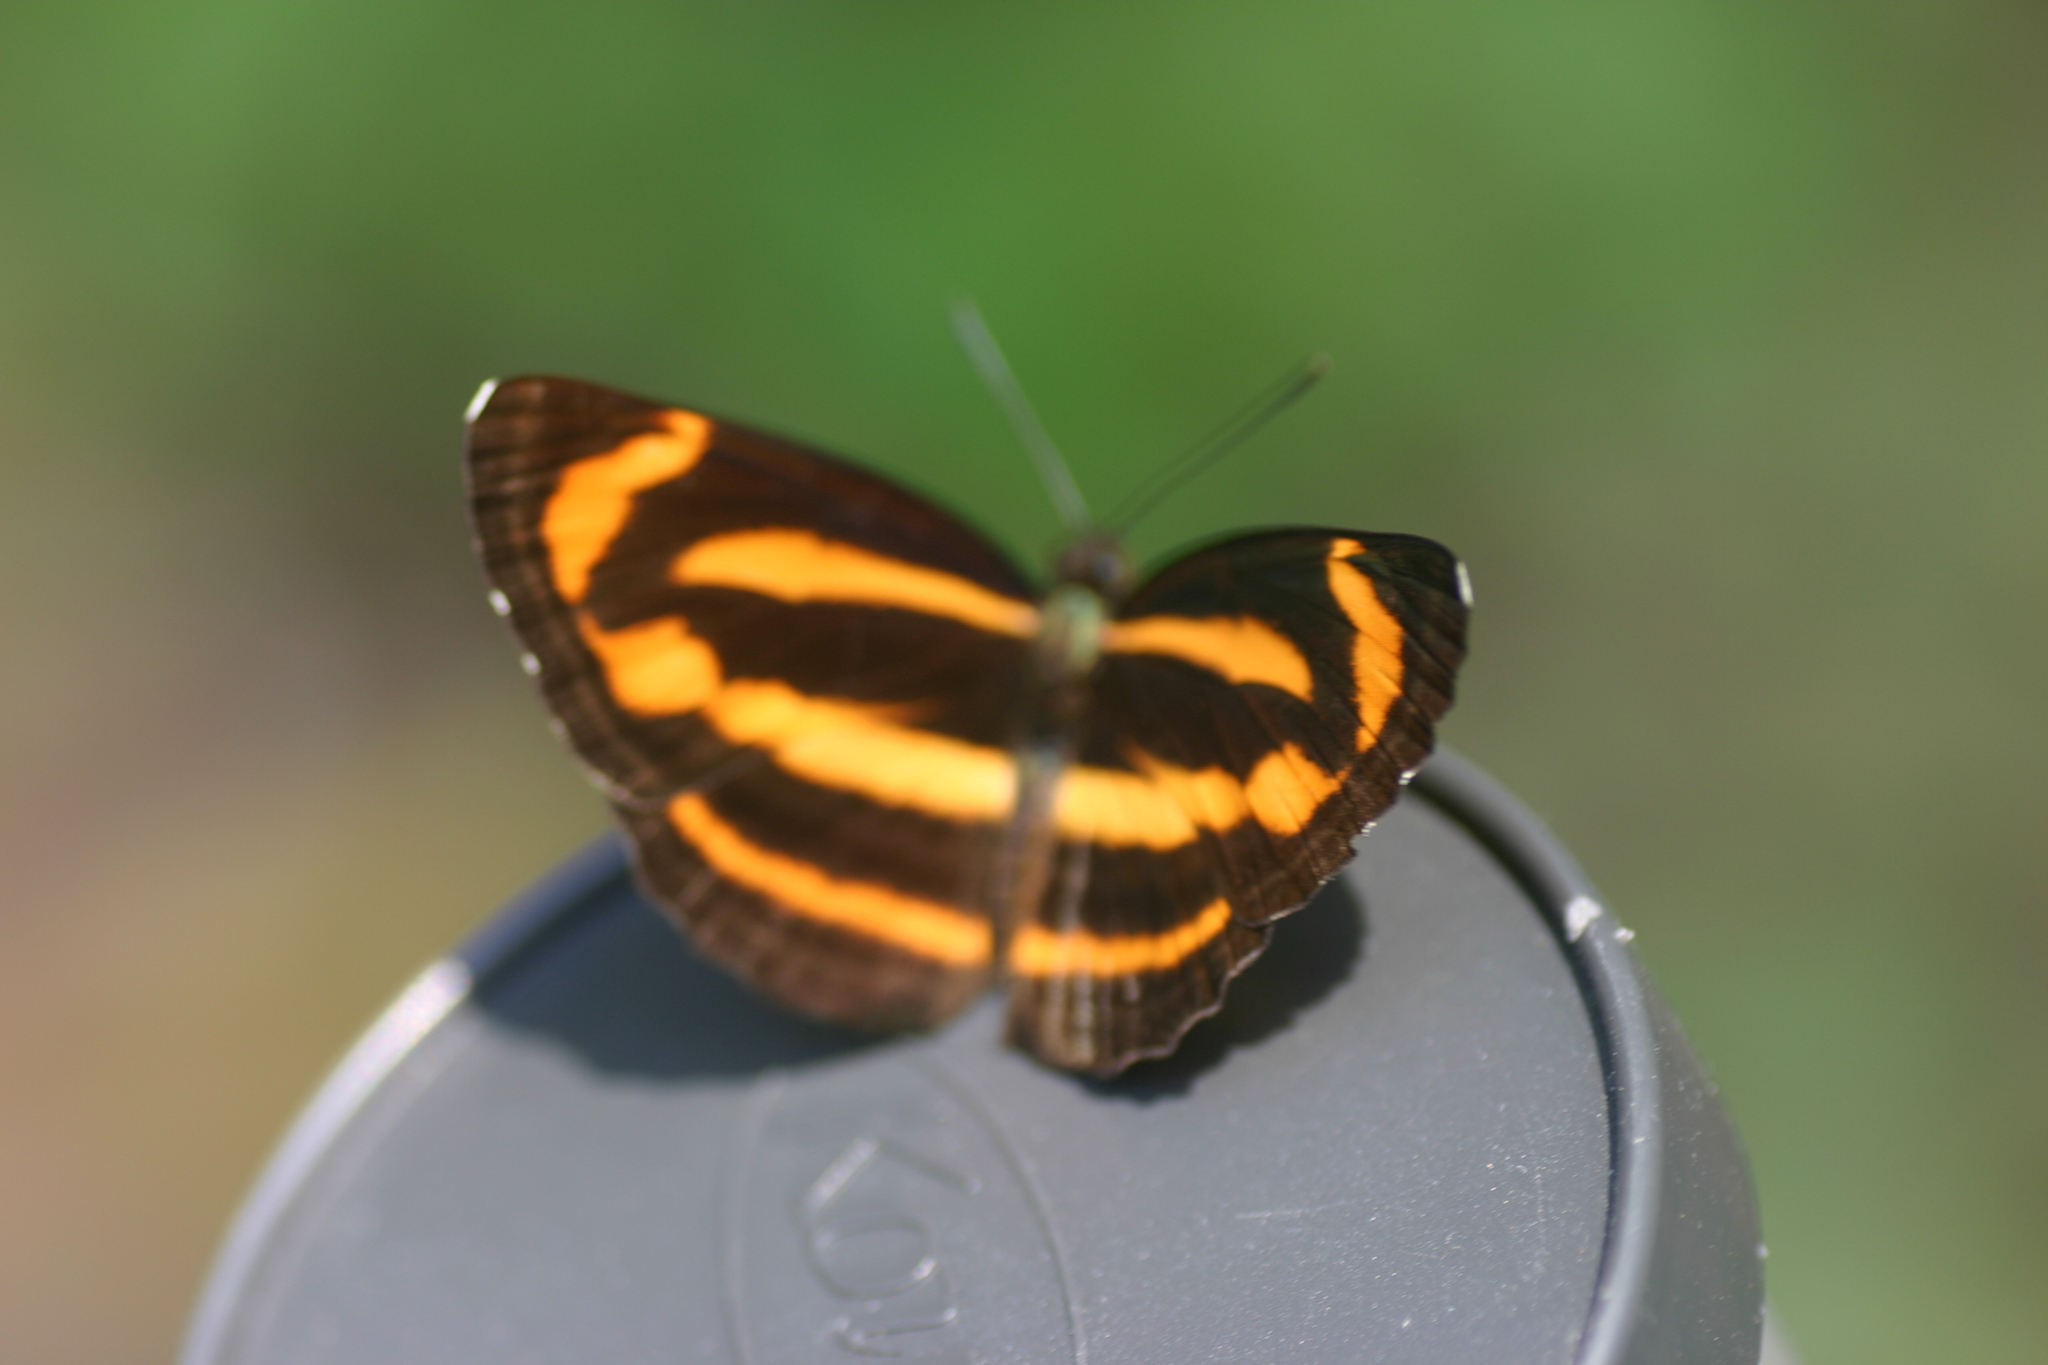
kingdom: Animalia
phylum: Arthropoda
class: Insecta
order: Lepidoptera
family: Nymphalidae
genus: Neptis
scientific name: Neptis miah
